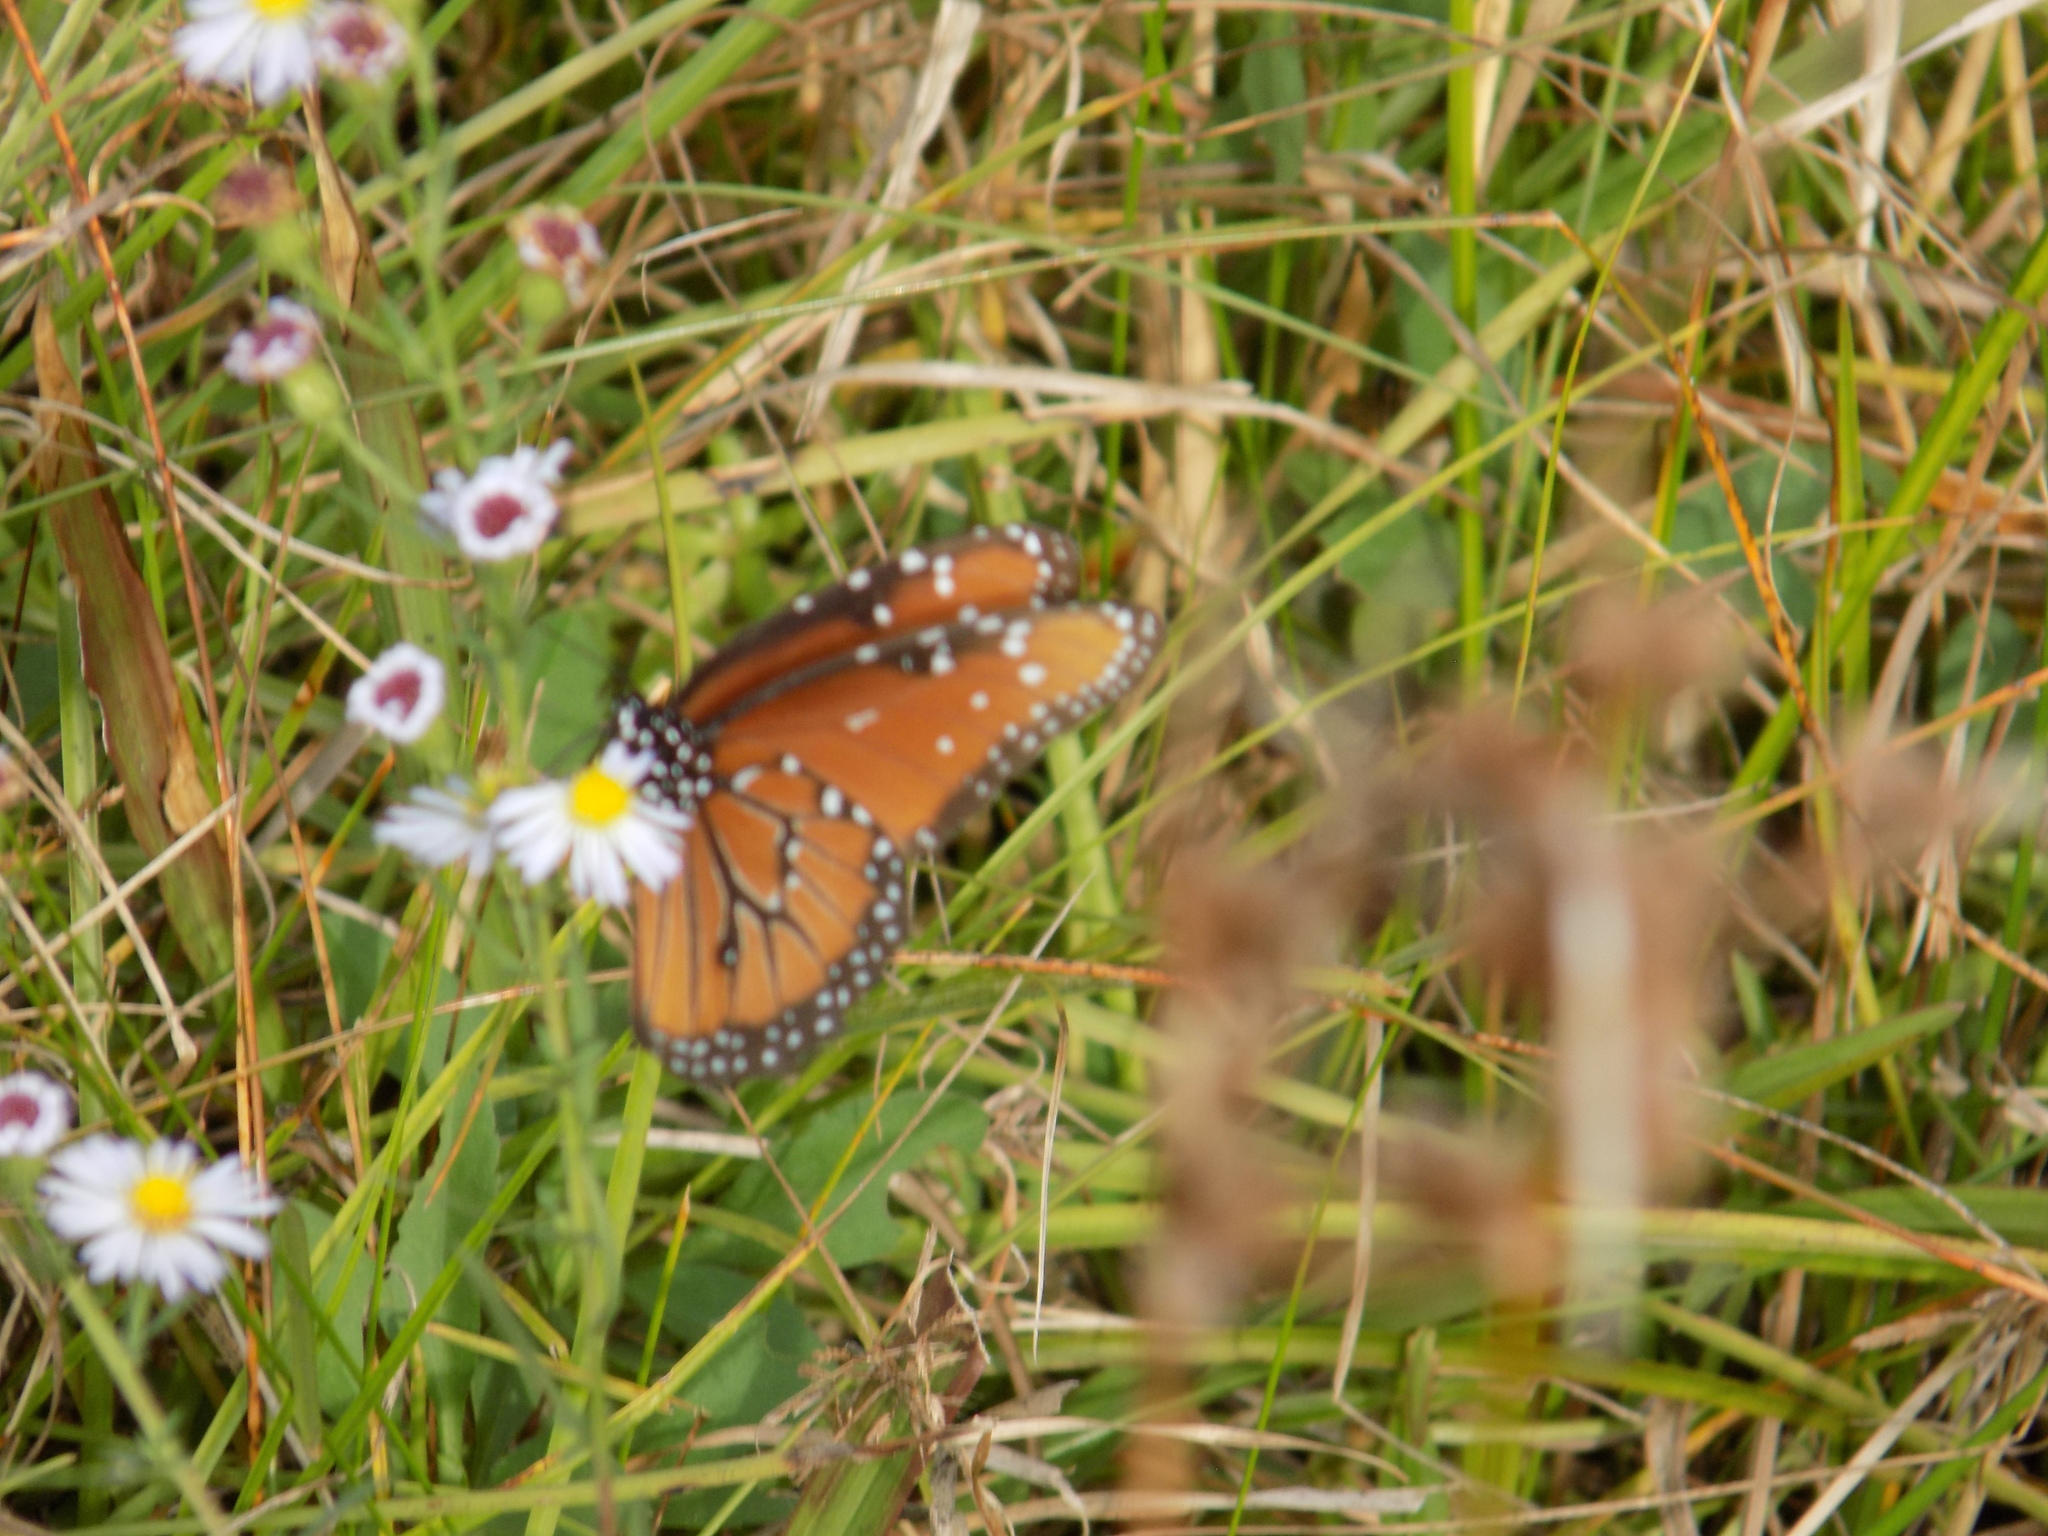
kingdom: Animalia
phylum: Arthropoda
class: Insecta
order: Lepidoptera
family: Nymphalidae
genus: Danaus
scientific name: Danaus gilippus
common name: Queen
